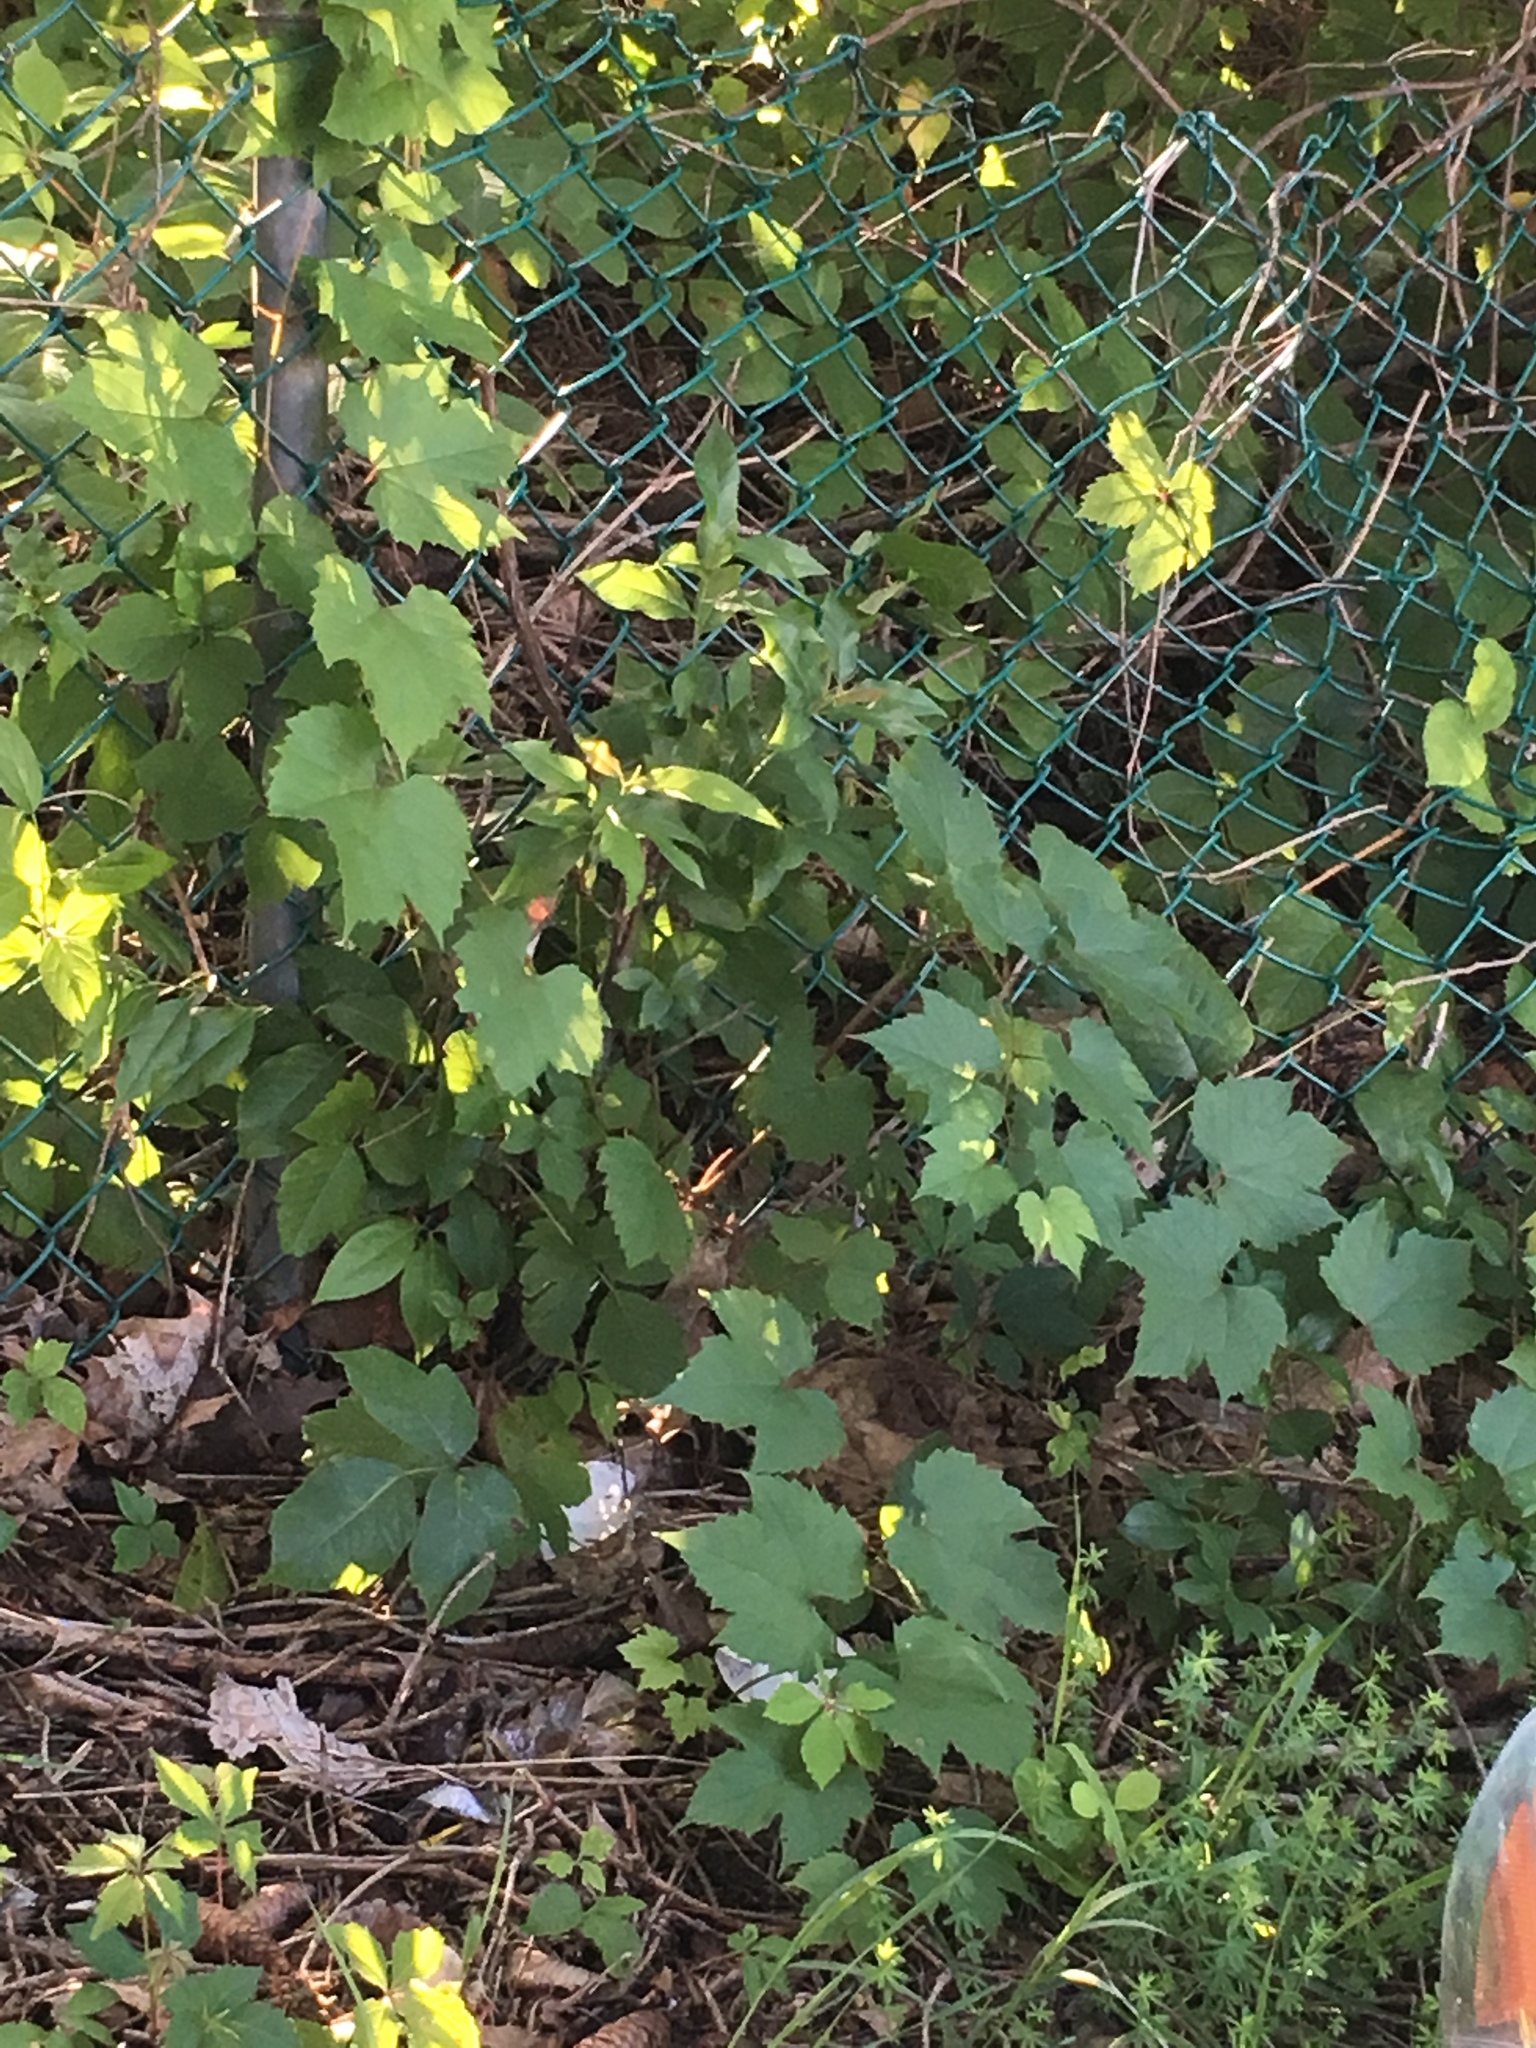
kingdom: Plantae
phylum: Tracheophyta
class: Magnoliopsida
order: Vitales
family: Vitaceae
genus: Vitis
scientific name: Vitis riparia
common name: Frost grape
